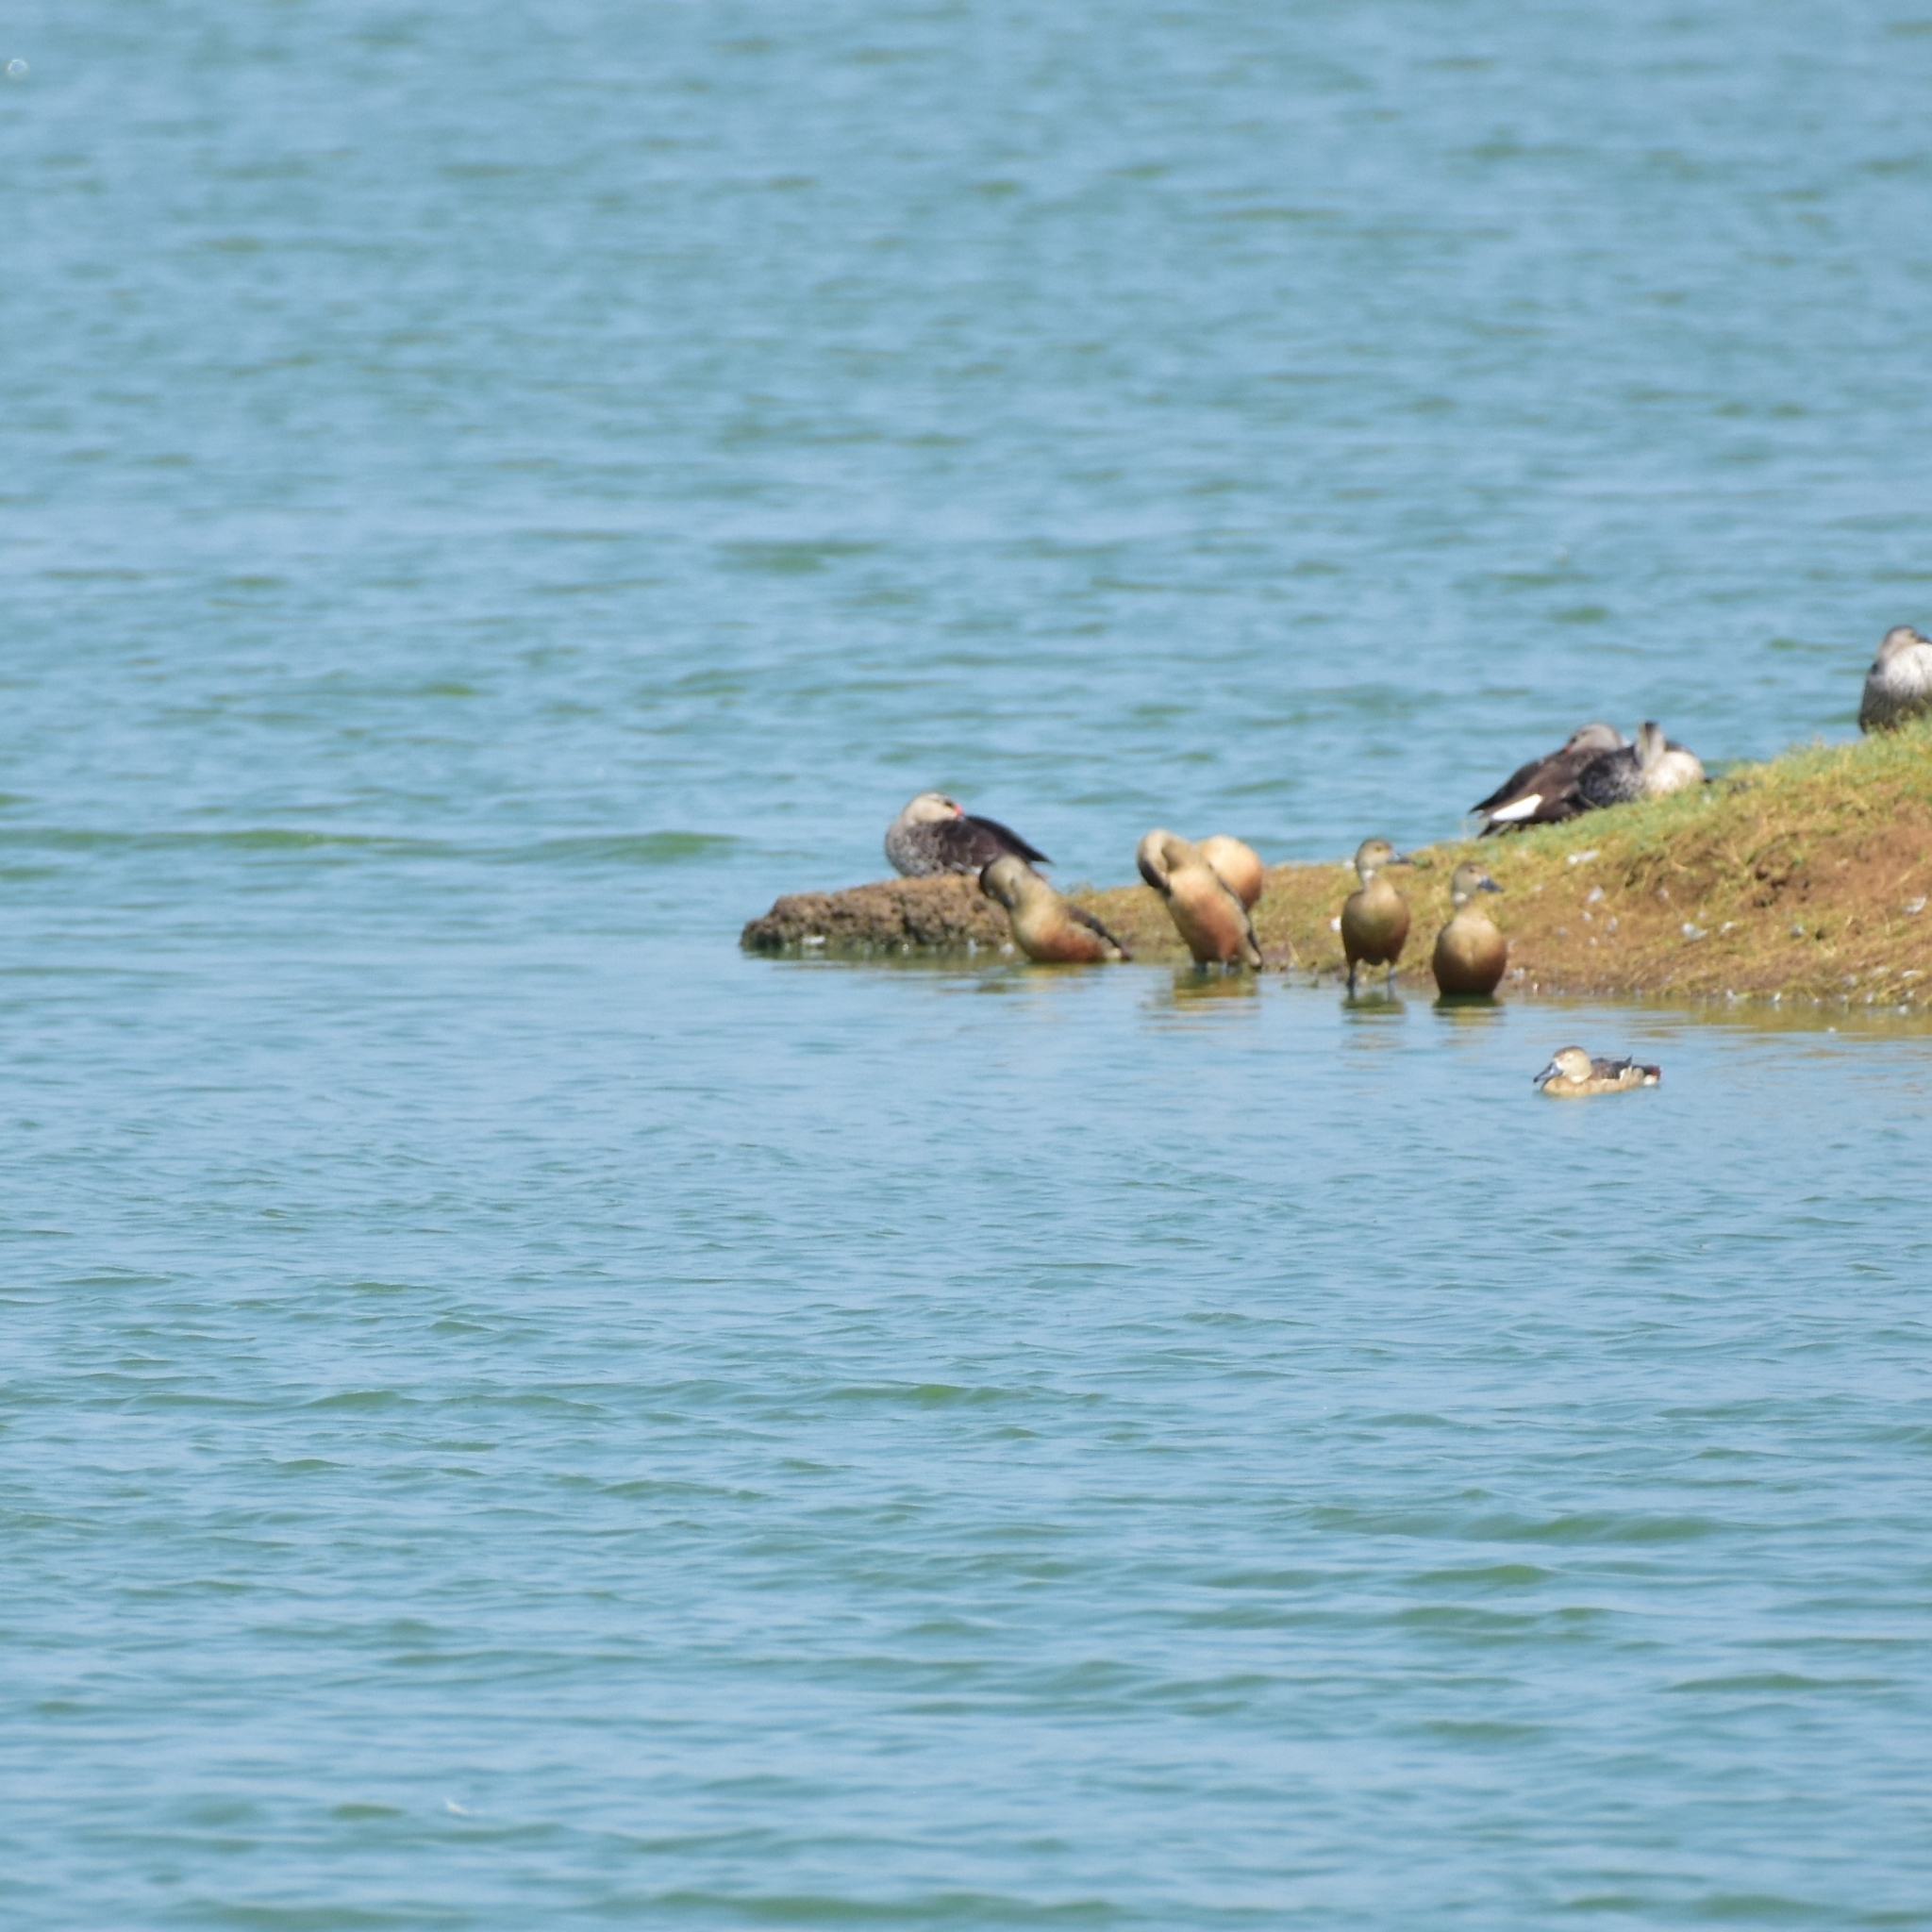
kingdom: Animalia
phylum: Chordata
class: Aves
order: Anseriformes
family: Anatidae
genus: Dendrocygna
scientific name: Dendrocygna javanica
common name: Lesser whistling-duck
